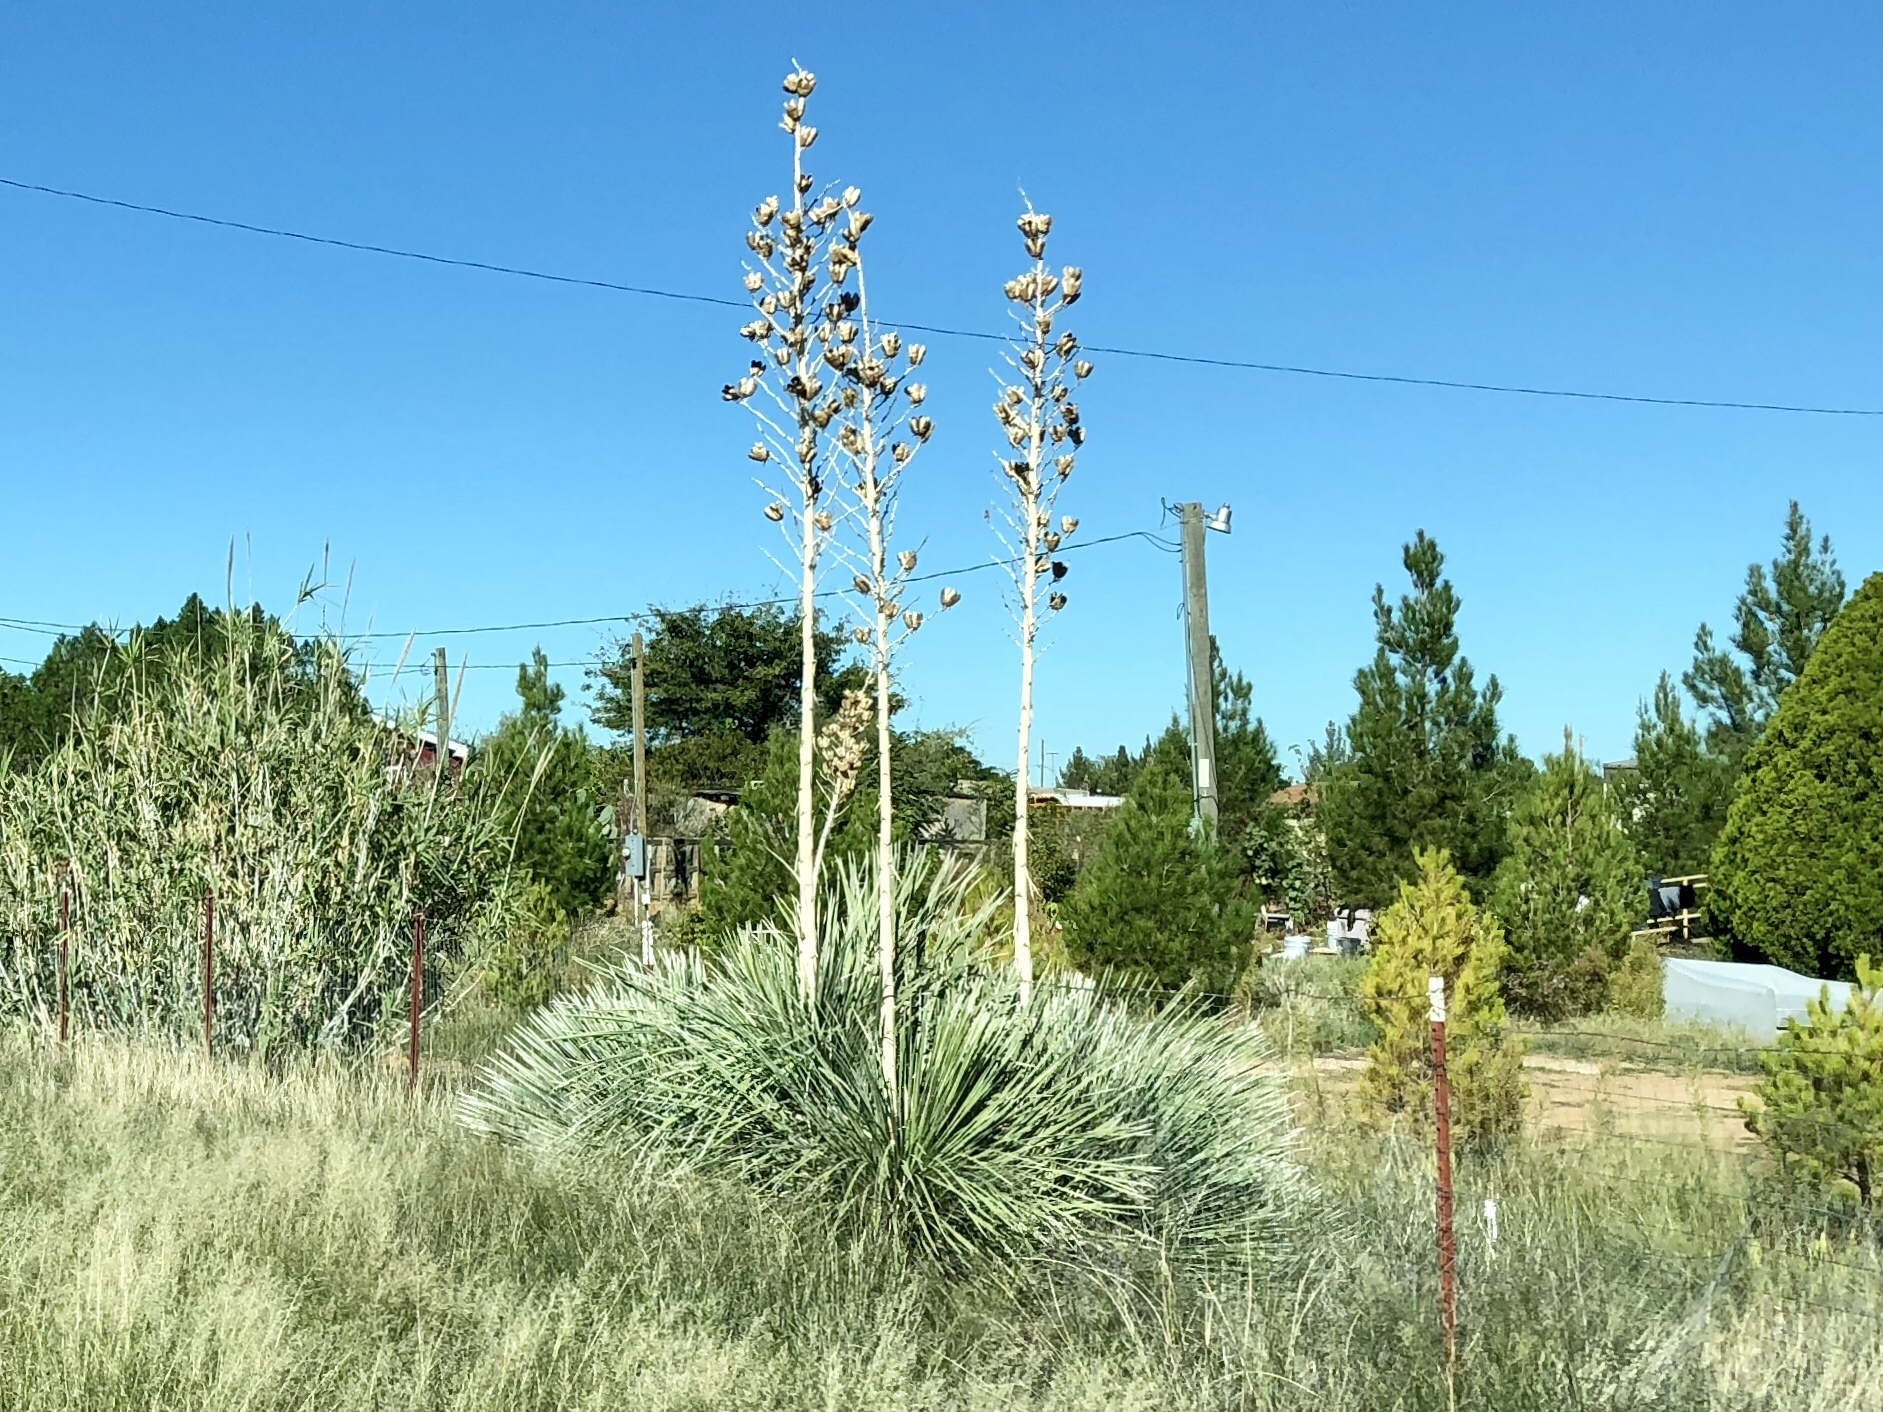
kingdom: Plantae
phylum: Tracheophyta
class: Liliopsida
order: Asparagales
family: Asparagaceae
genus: Yucca
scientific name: Yucca elata
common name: Palmella
